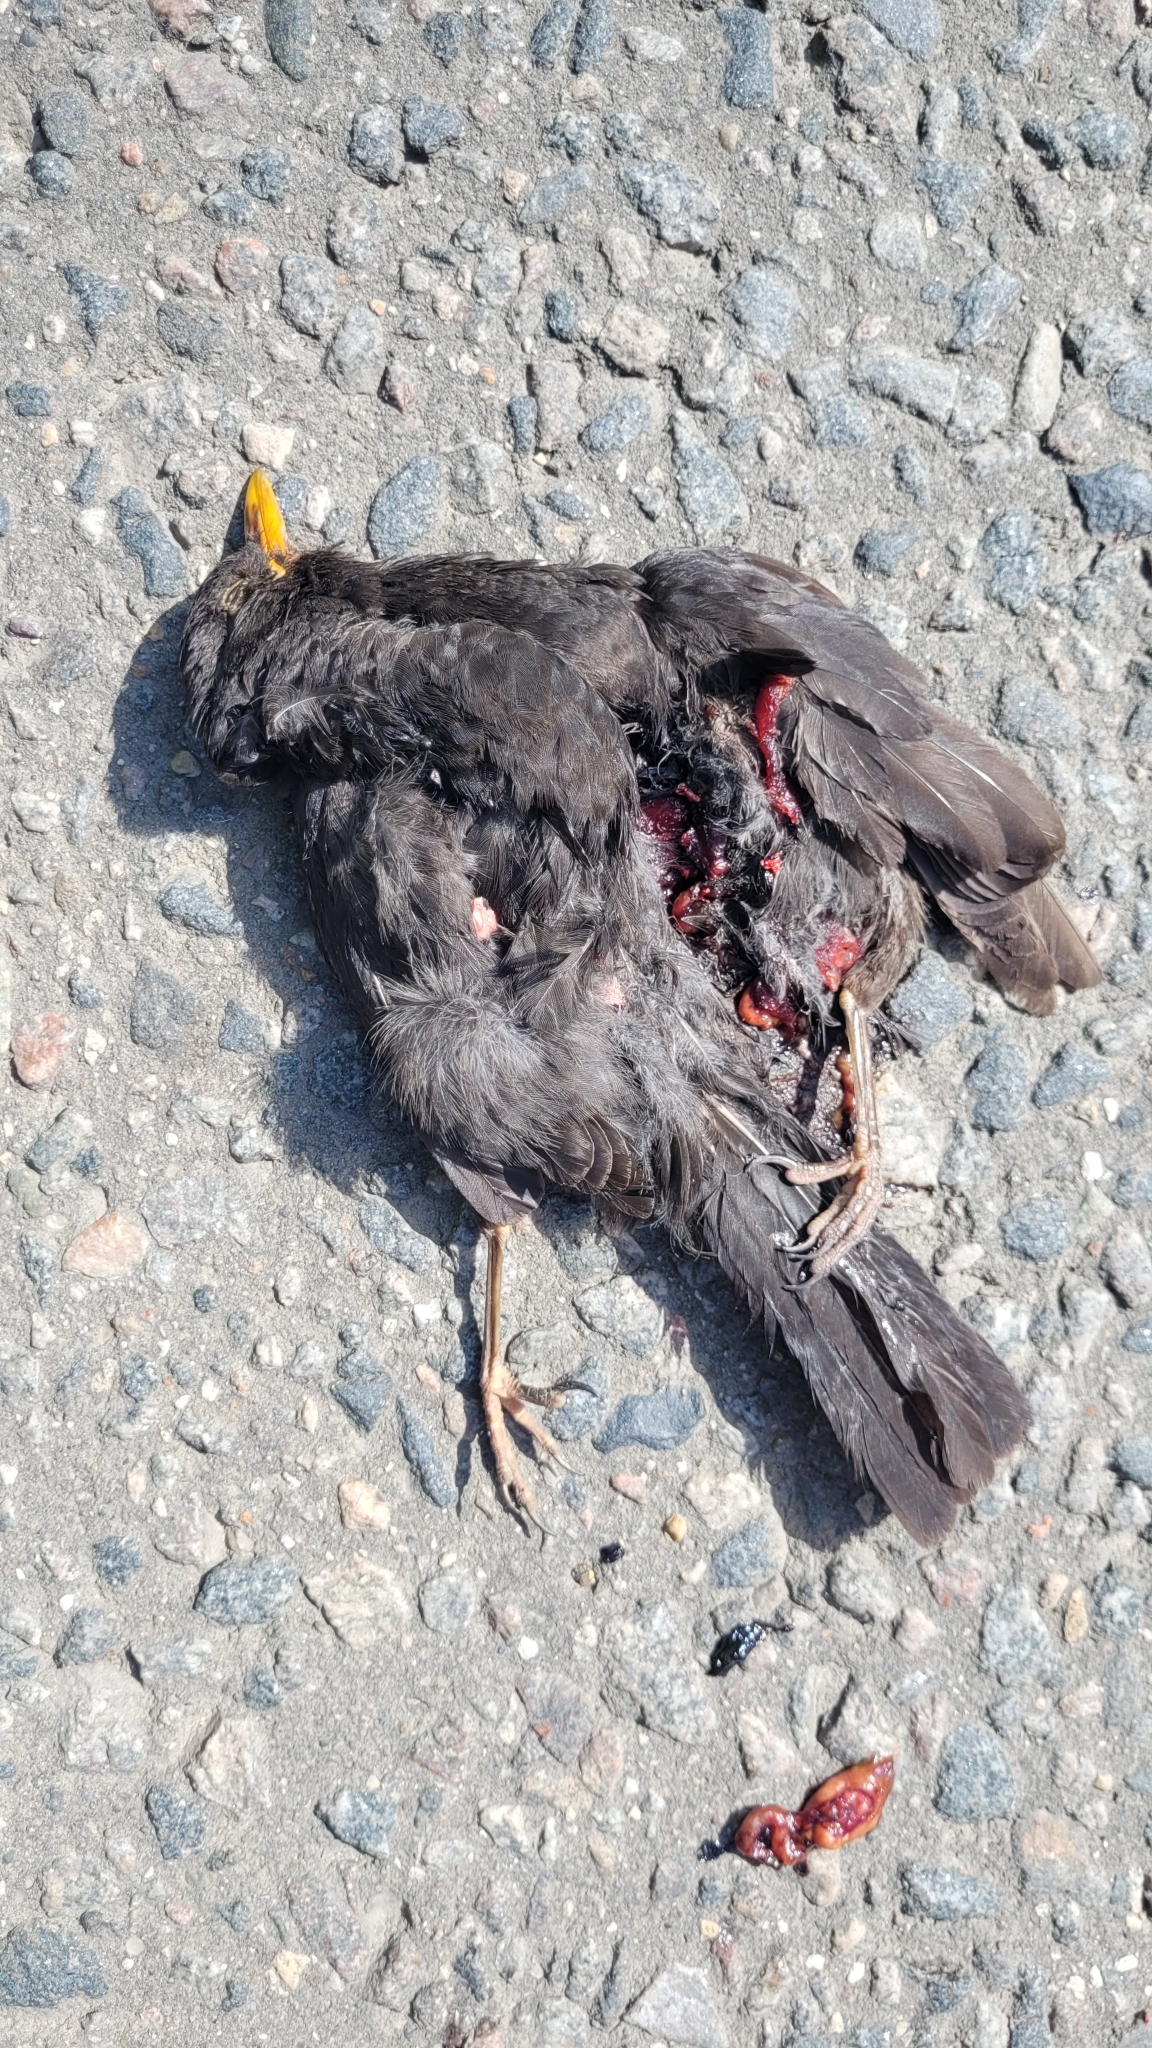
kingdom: Animalia
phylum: Chordata
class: Aves
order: Passeriformes
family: Turdidae
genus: Turdus
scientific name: Turdus merula
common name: Common blackbird
